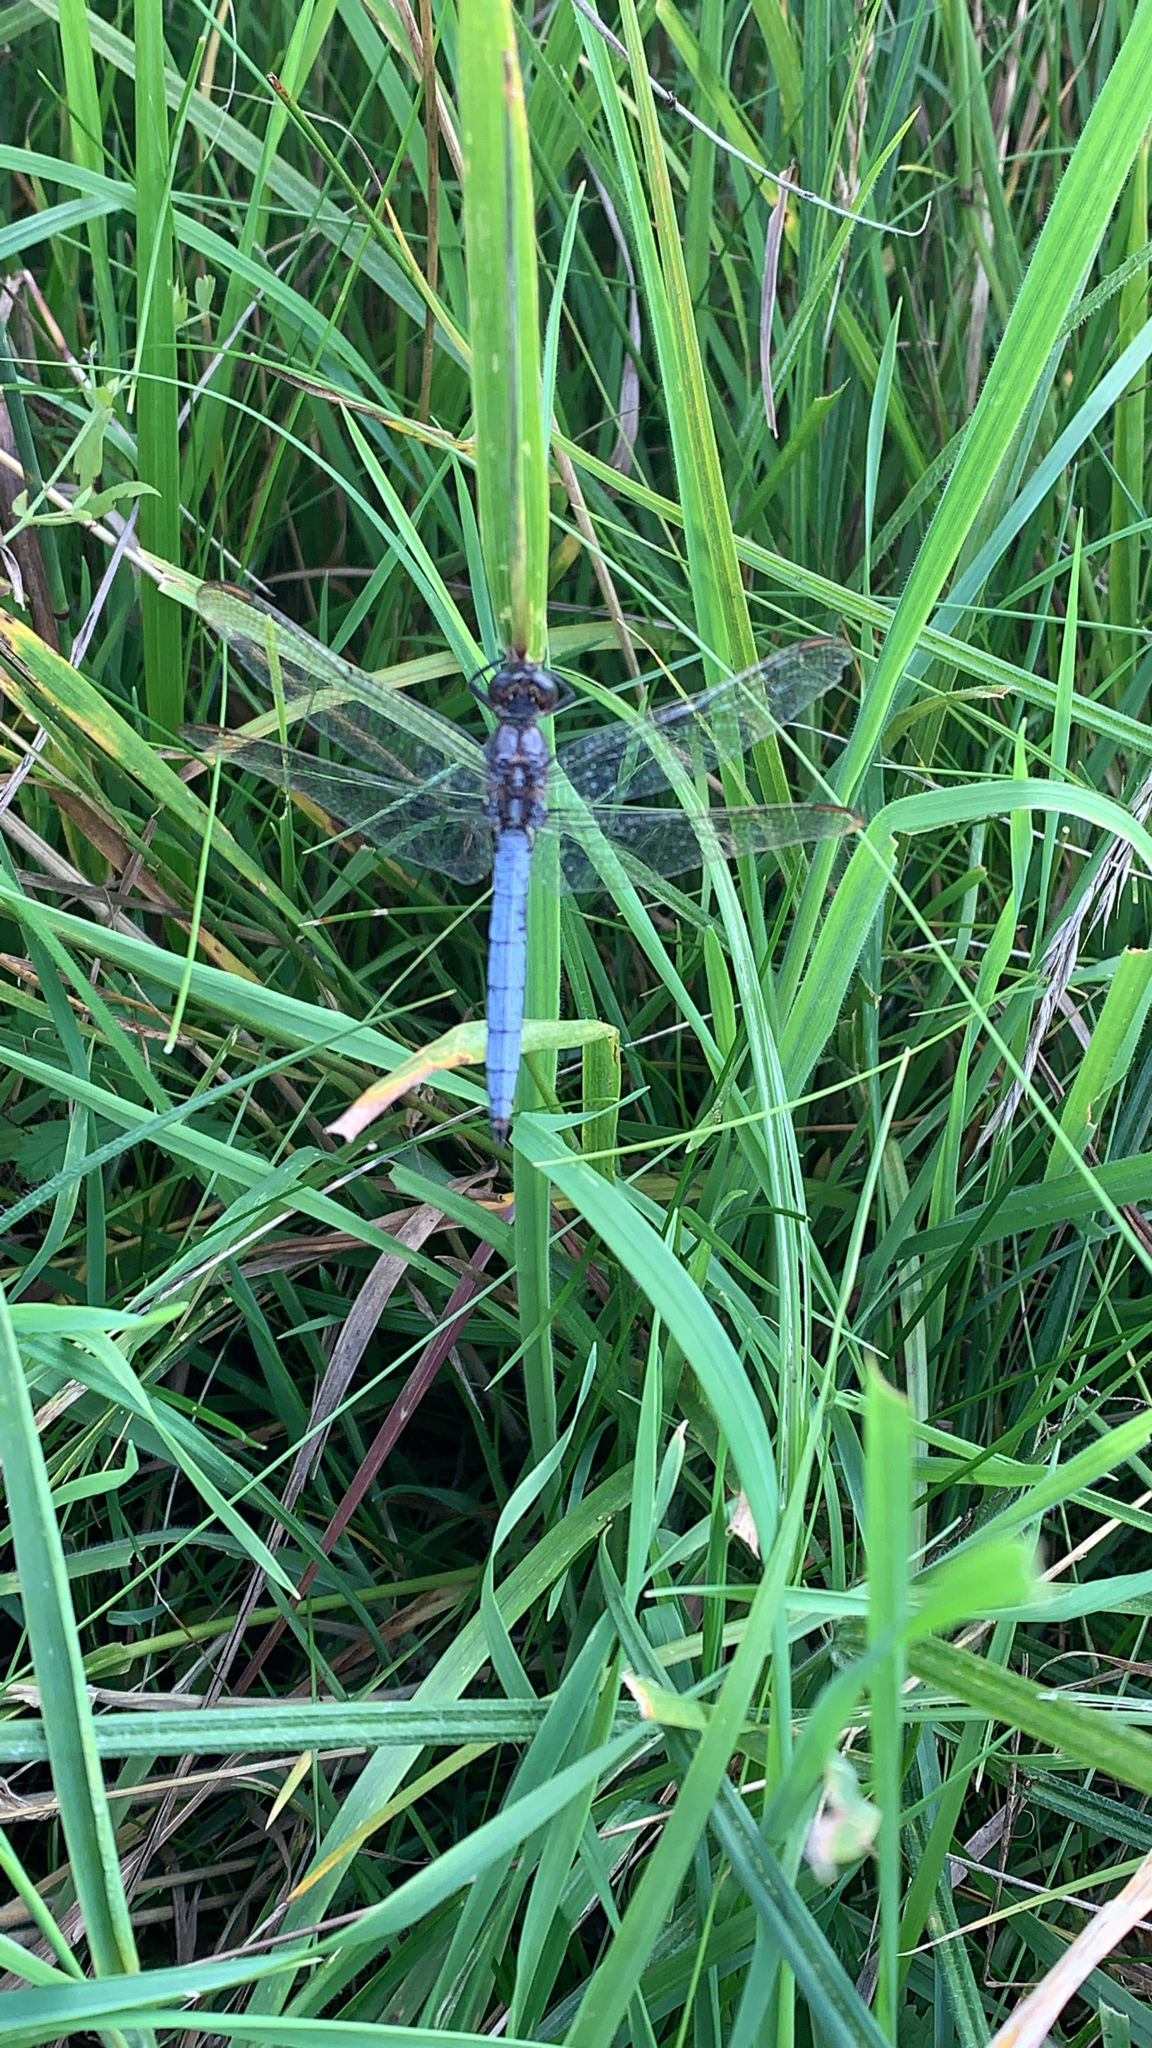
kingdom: Animalia
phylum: Arthropoda
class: Insecta
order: Odonata
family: Libellulidae
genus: Orthetrum
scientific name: Orthetrum coerulescens
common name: Keeled skimmer
